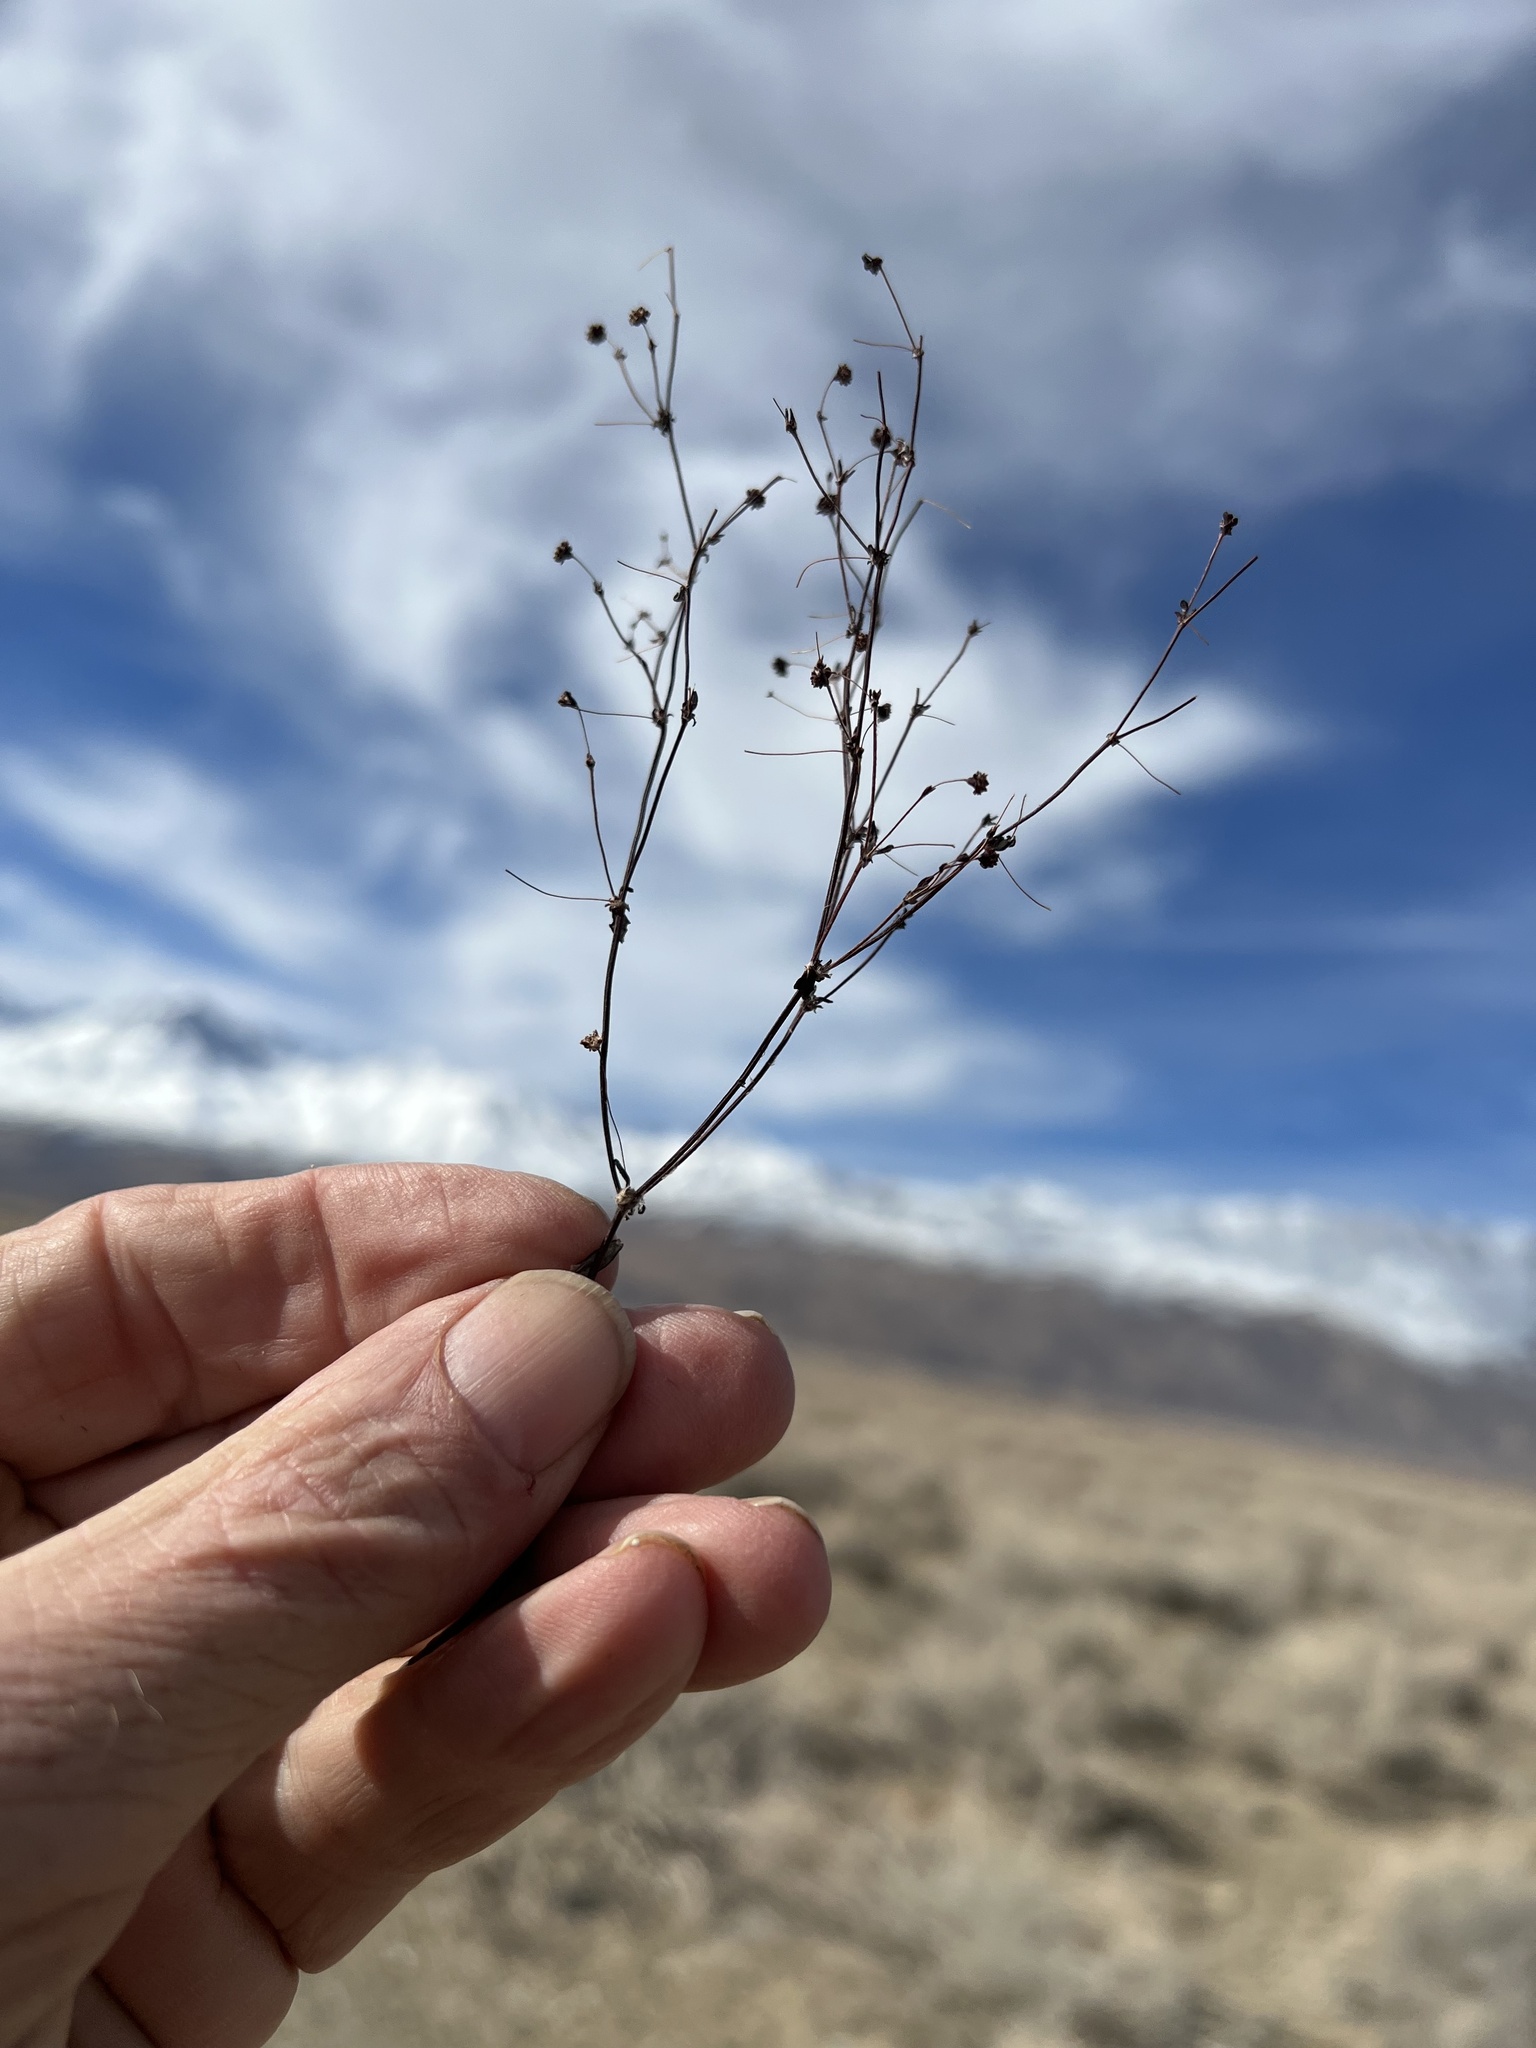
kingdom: Plantae
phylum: Tracheophyta
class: Magnoliopsida
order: Caryophyllales
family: Polygonaceae
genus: Eriogonum
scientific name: Eriogonum maculatum
